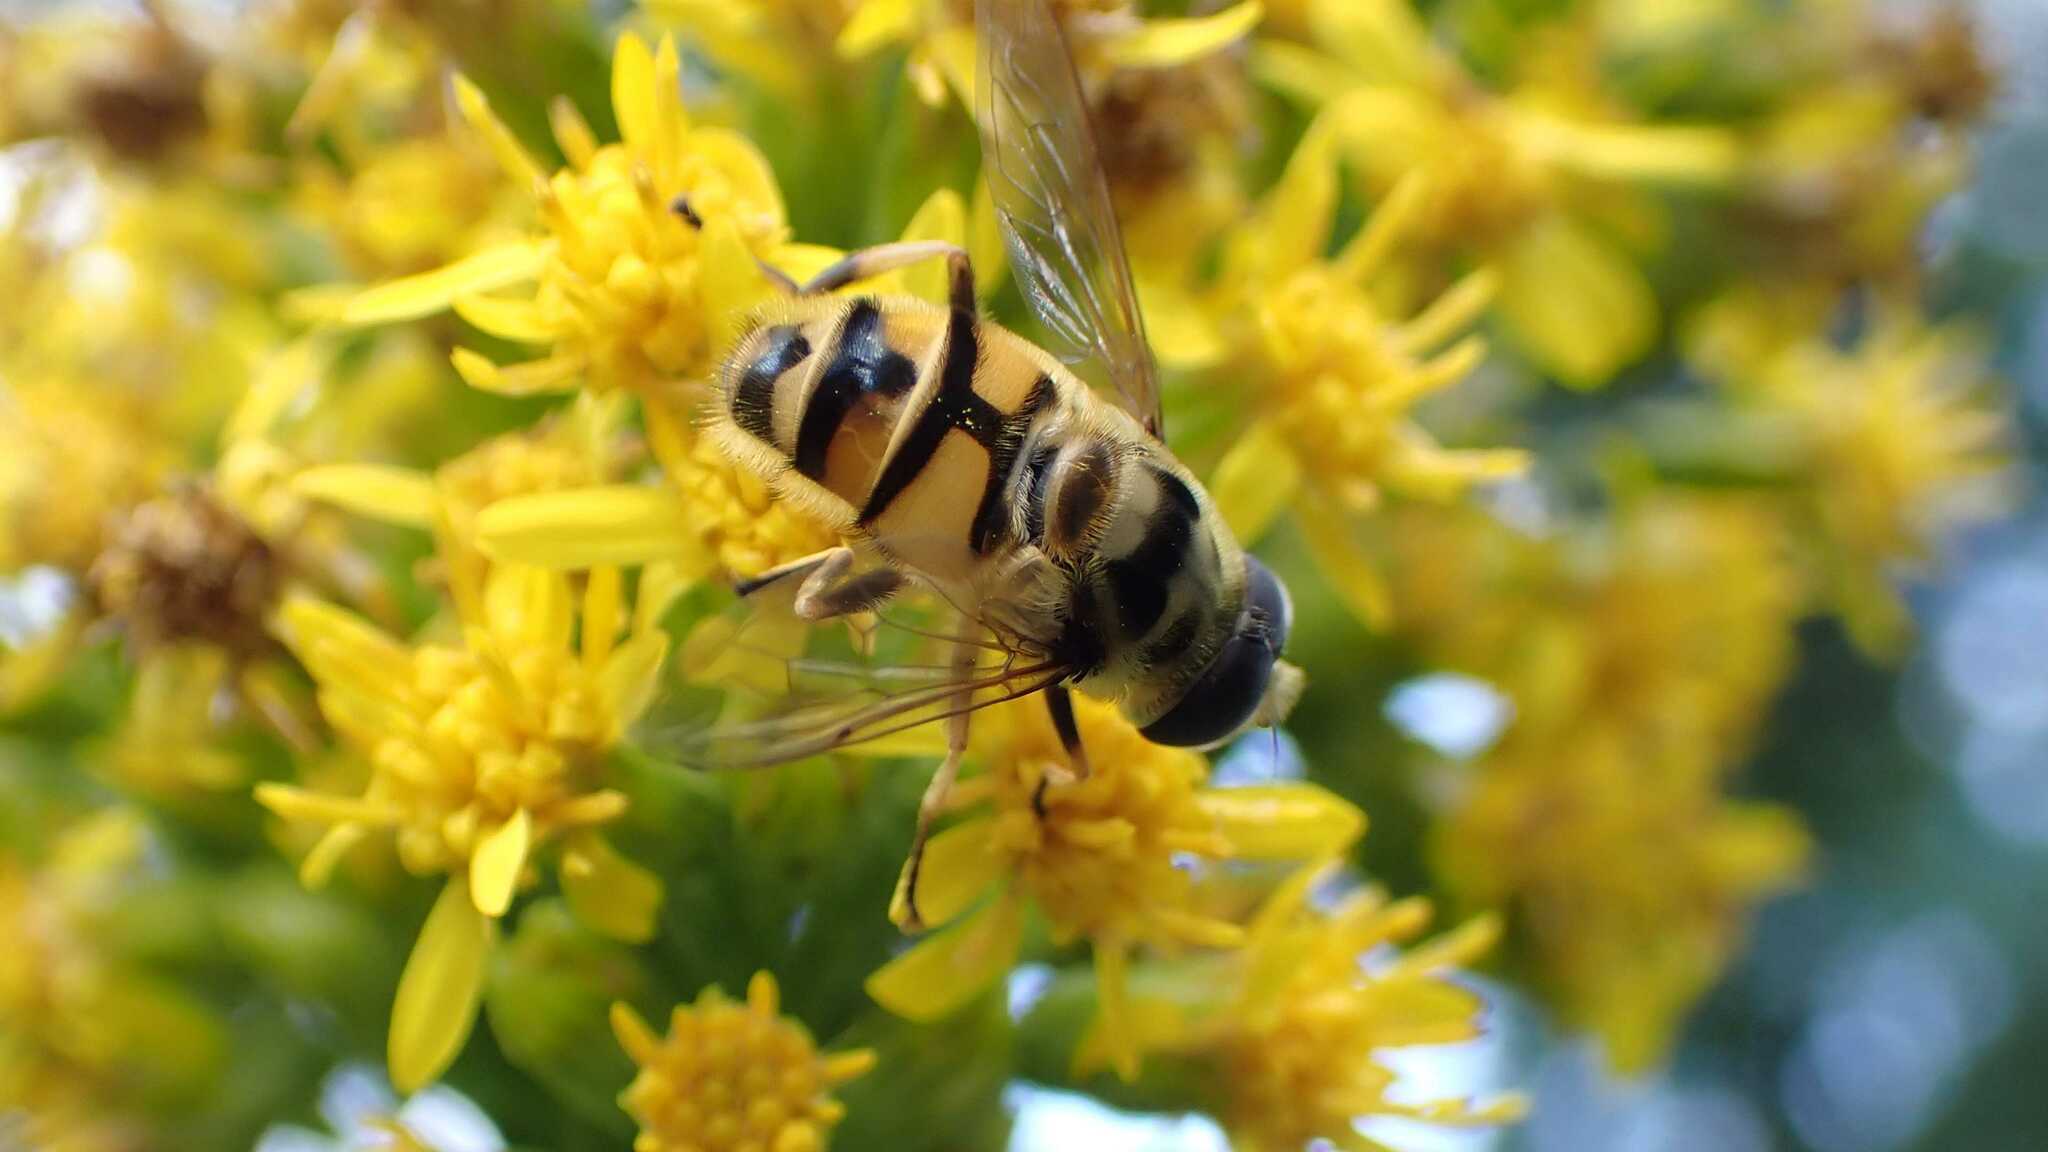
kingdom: Animalia
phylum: Arthropoda
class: Insecta
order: Diptera
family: Syrphidae
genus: Myathropa
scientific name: Myathropa florea
